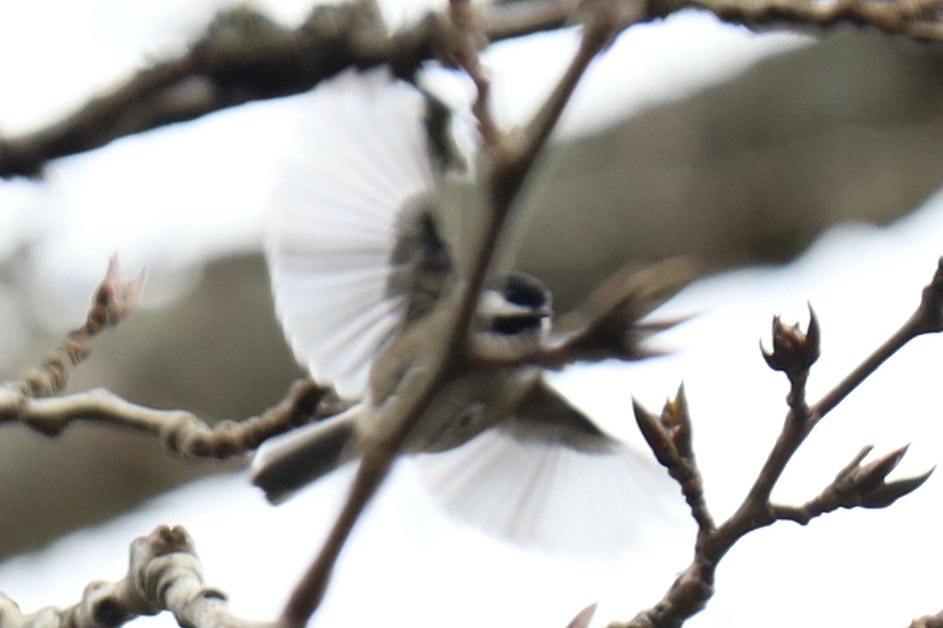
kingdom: Animalia
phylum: Chordata
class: Aves
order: Passeriformes
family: Paridae
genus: Poecile
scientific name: Poecile atricapillus
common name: Black-capped chickadee
